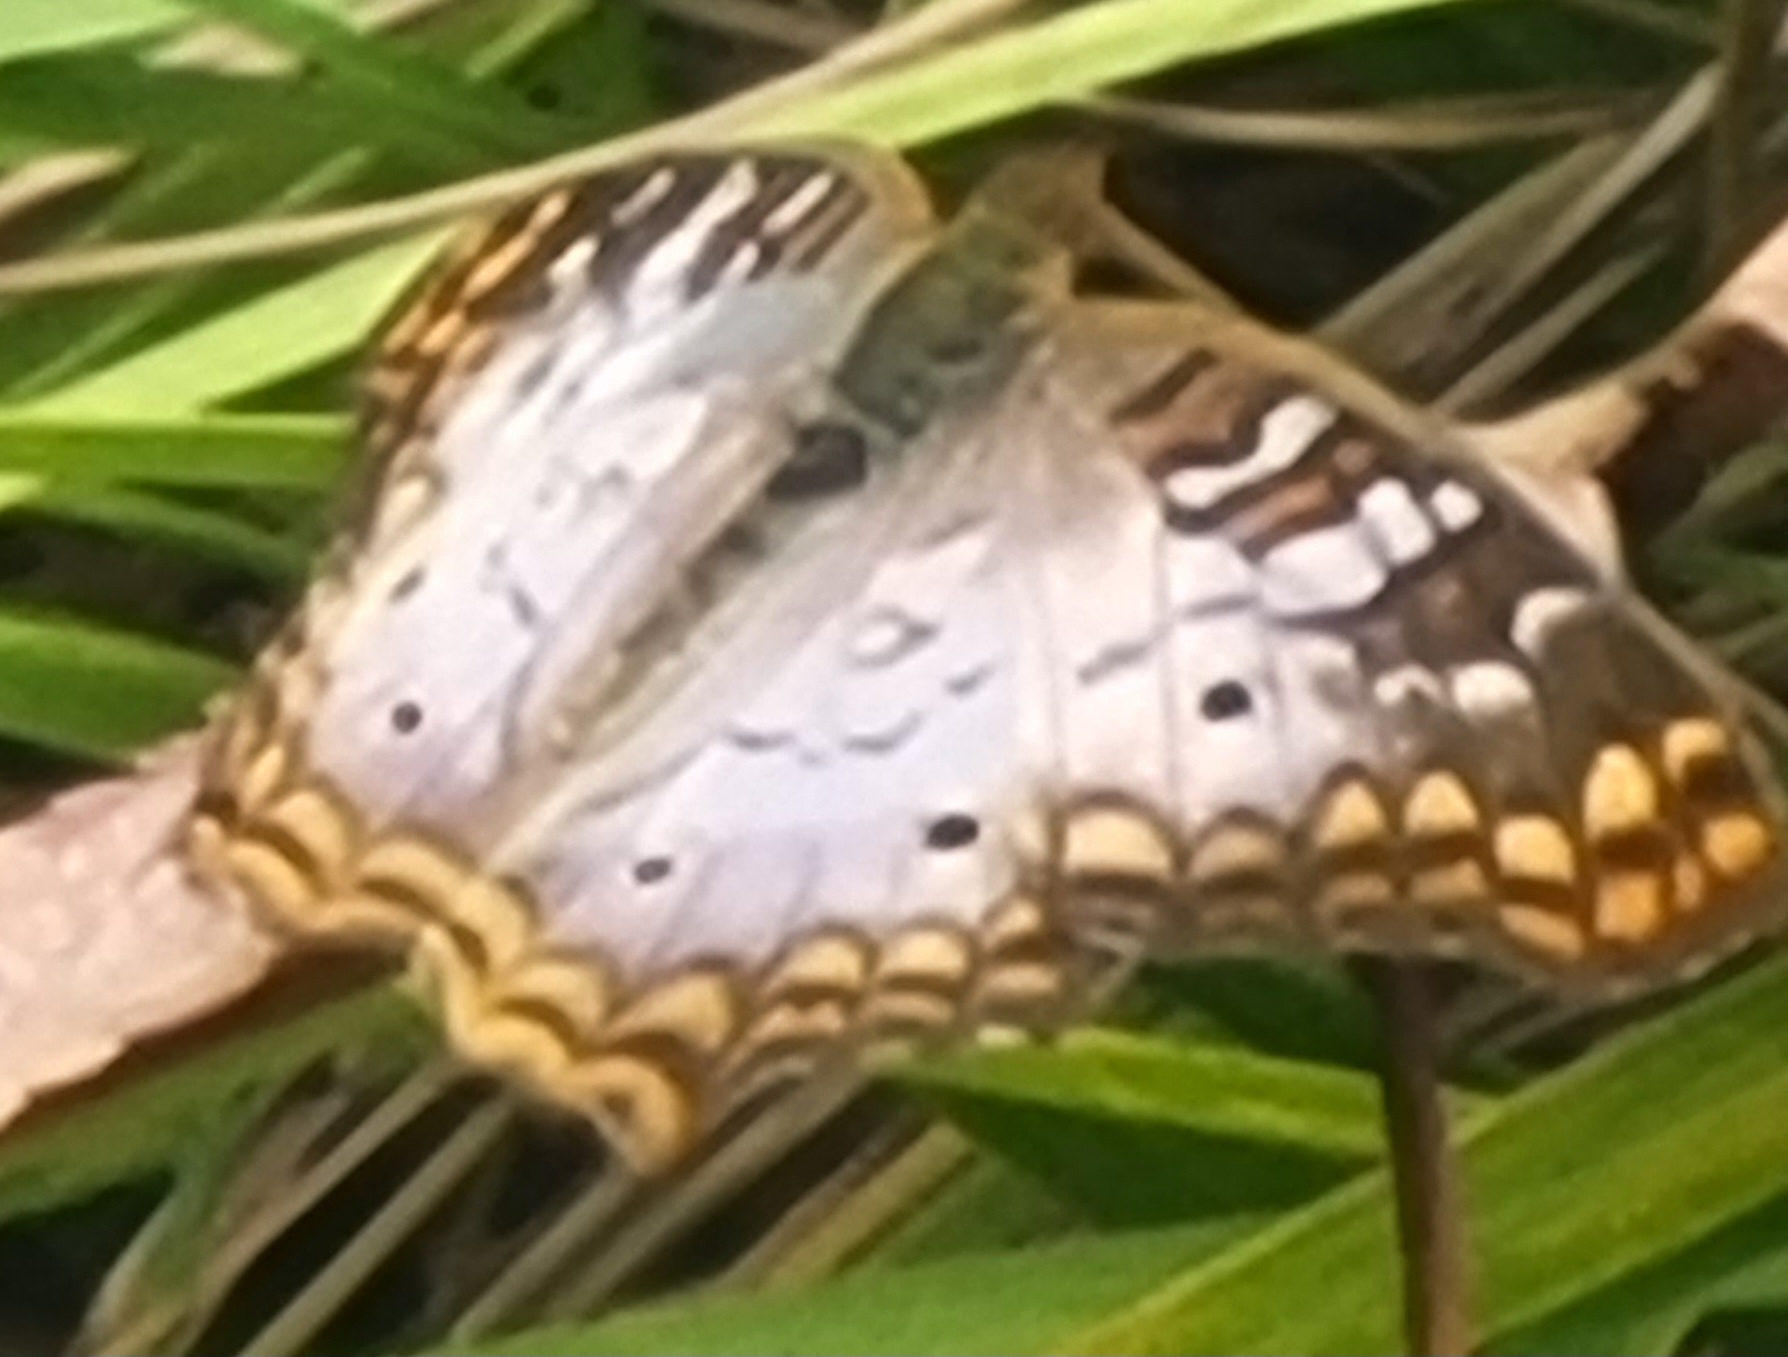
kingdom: Animalia
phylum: Arthropoda
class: Insecta
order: Lepidoptera
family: Nymphalidae
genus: Anartia
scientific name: Anartia jatrophae
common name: White peacock
